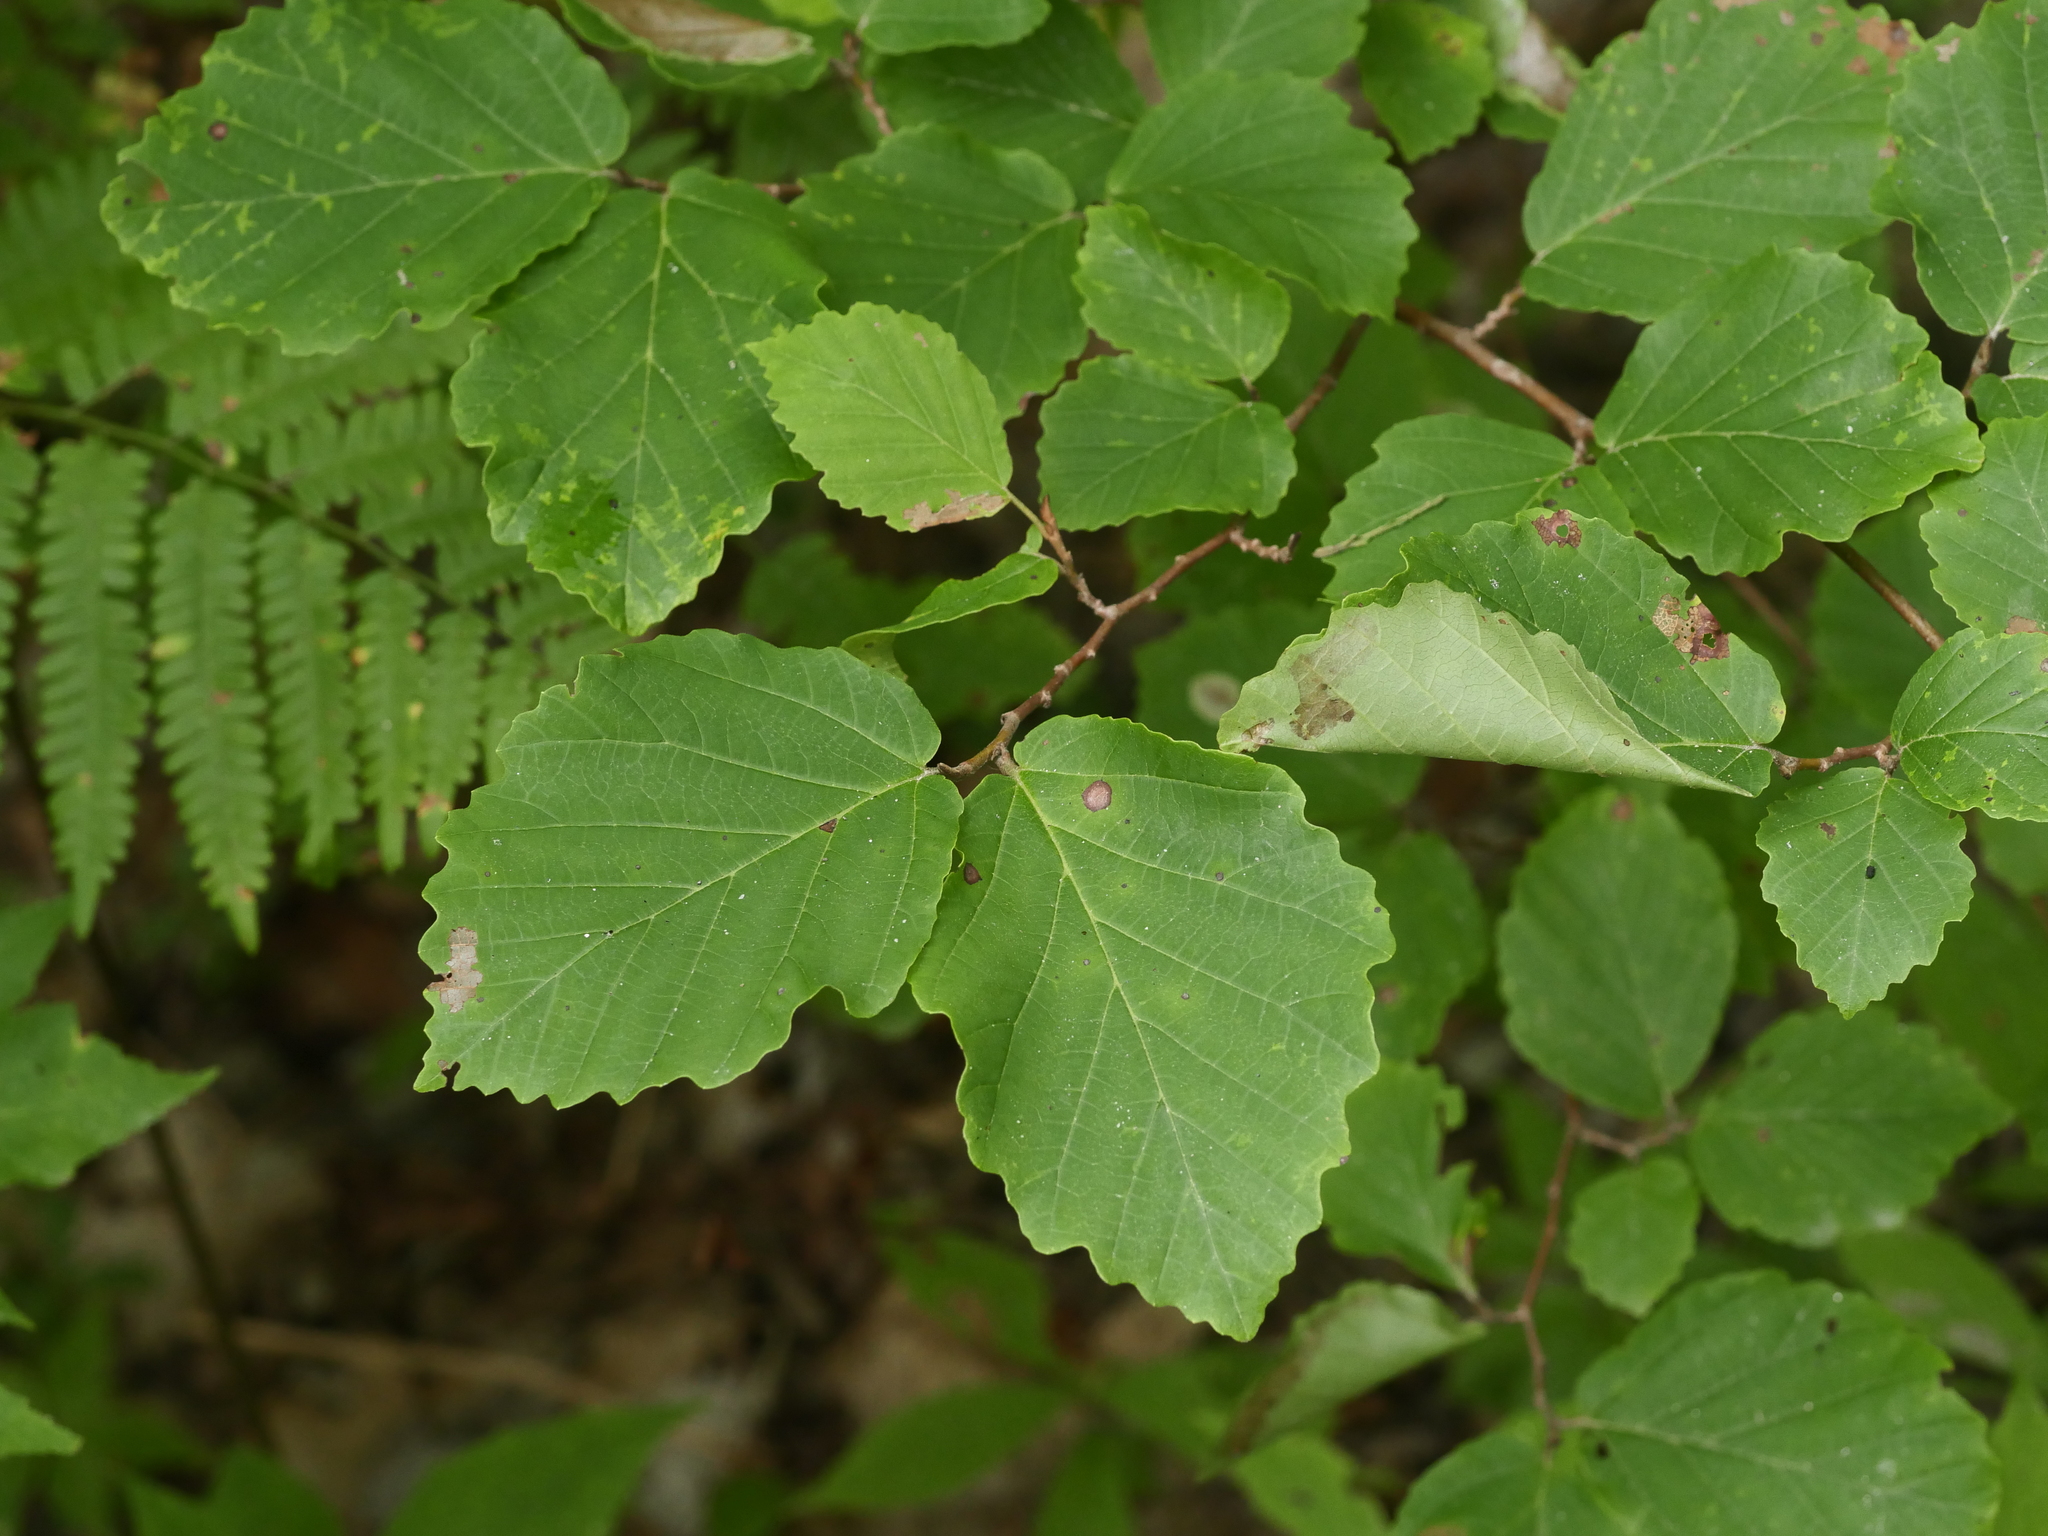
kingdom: Plantae
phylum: Tracheophyta
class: Magnoliopsida
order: Saxifragales
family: Hamamelidaceae
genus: Hamamelis
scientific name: Hamamelis virginiana
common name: Witch-hazel
